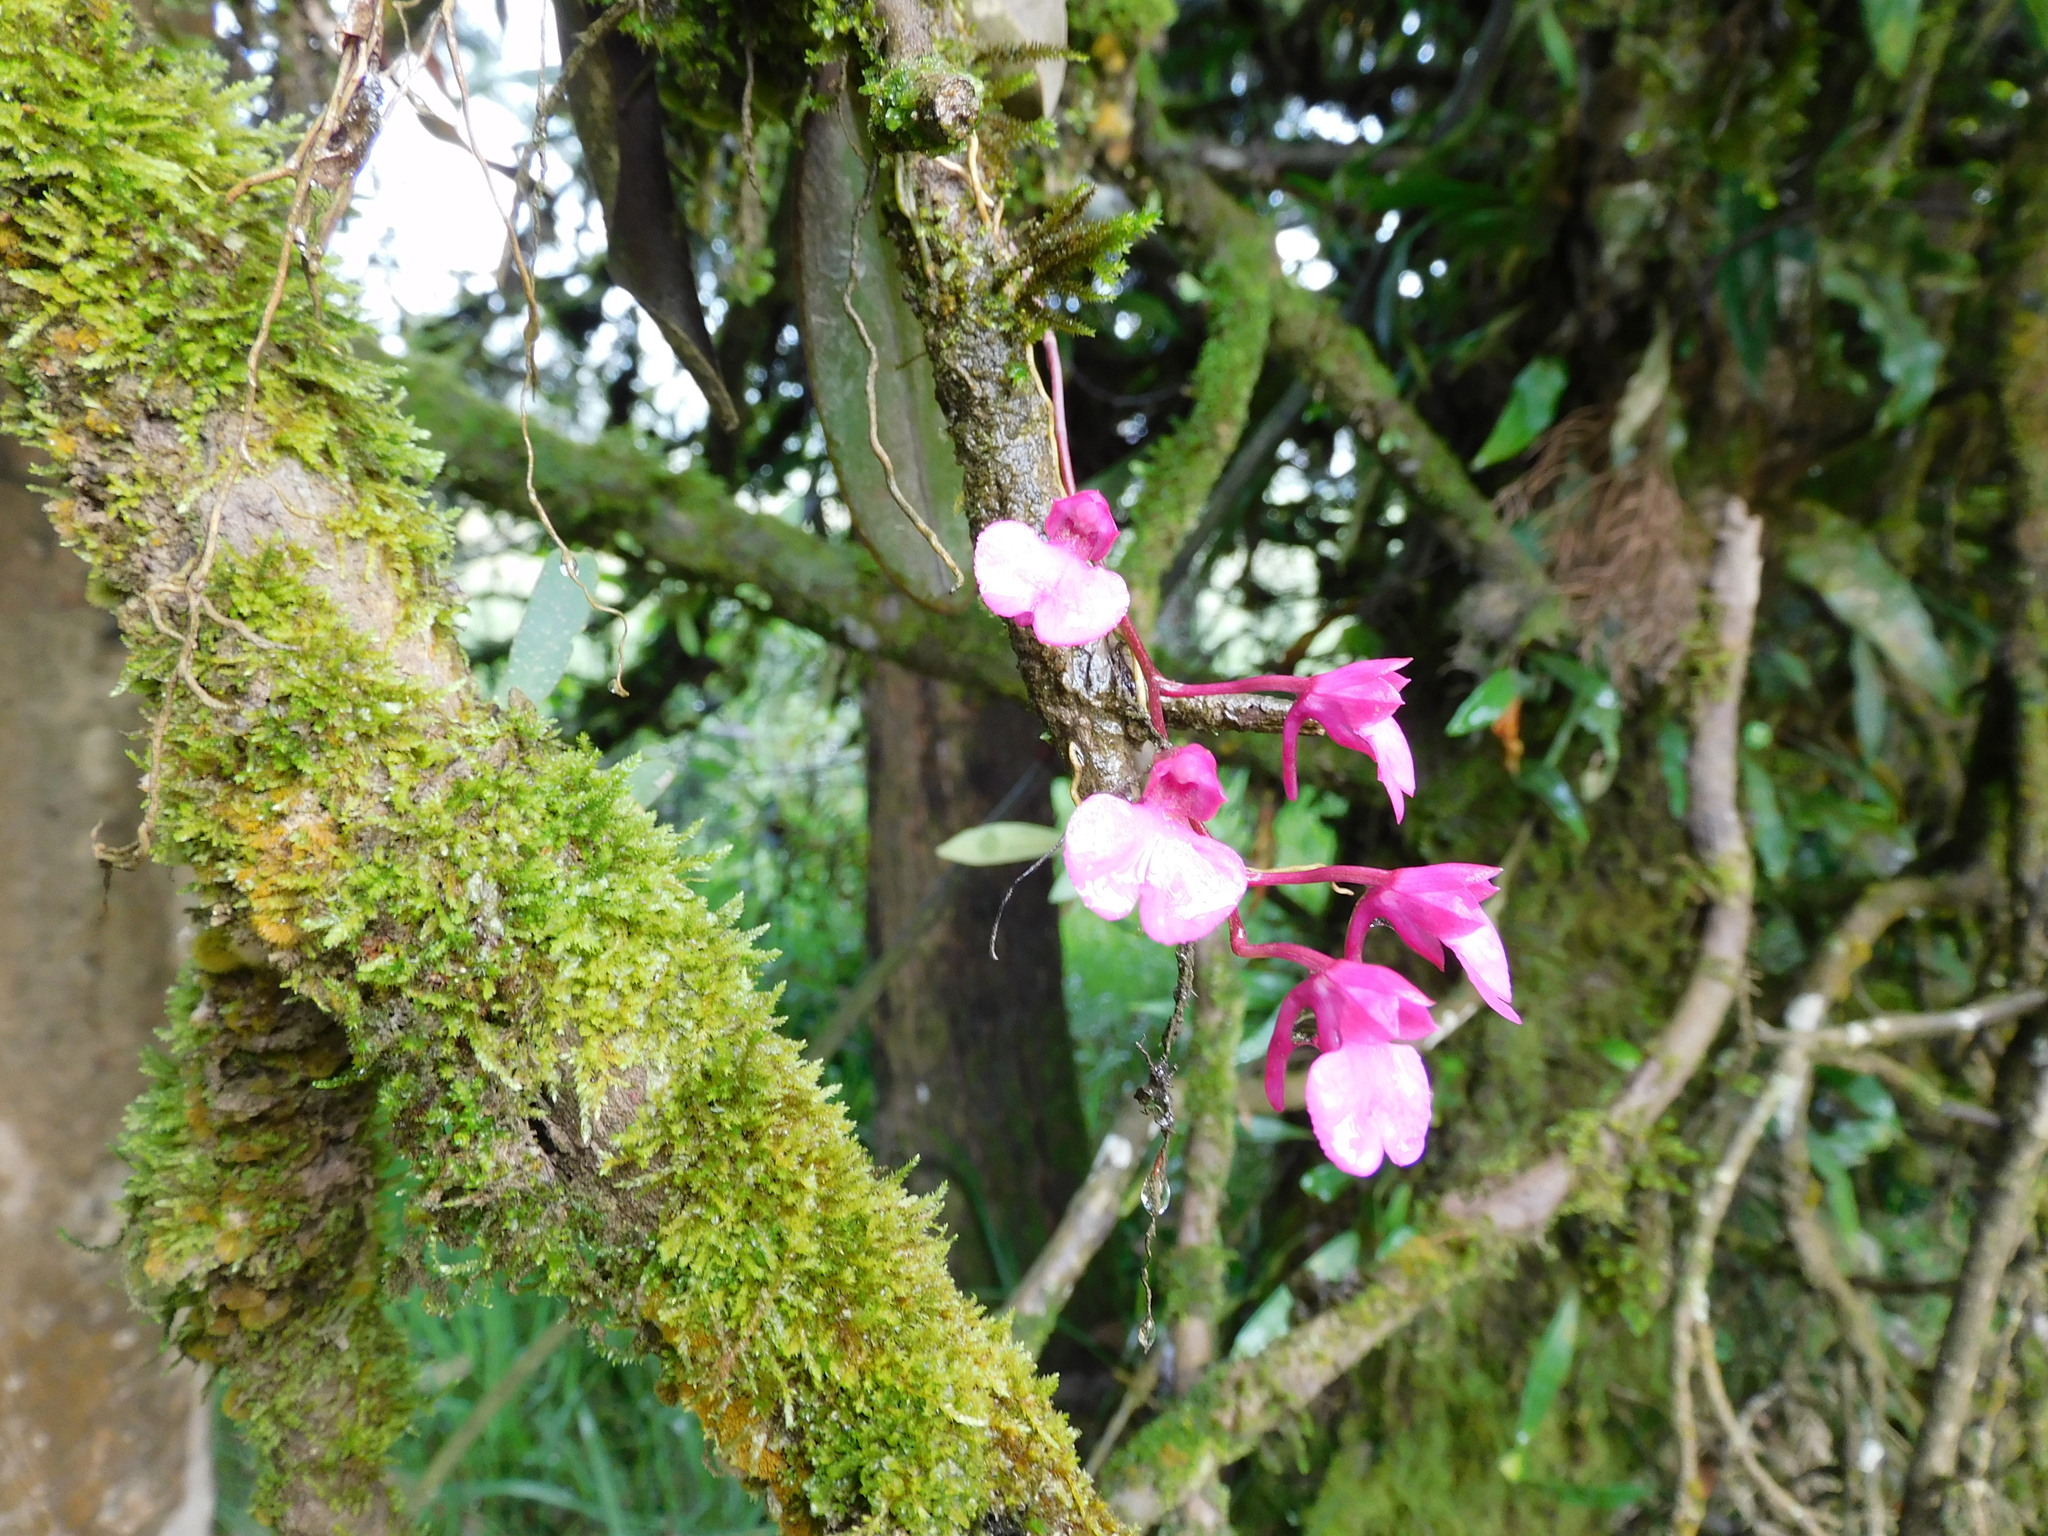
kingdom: Plantae
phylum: Tracheophyta
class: Liliopsida
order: Asparagales
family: Orchidaceae
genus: Comparettia
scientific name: Comparettia falcata
